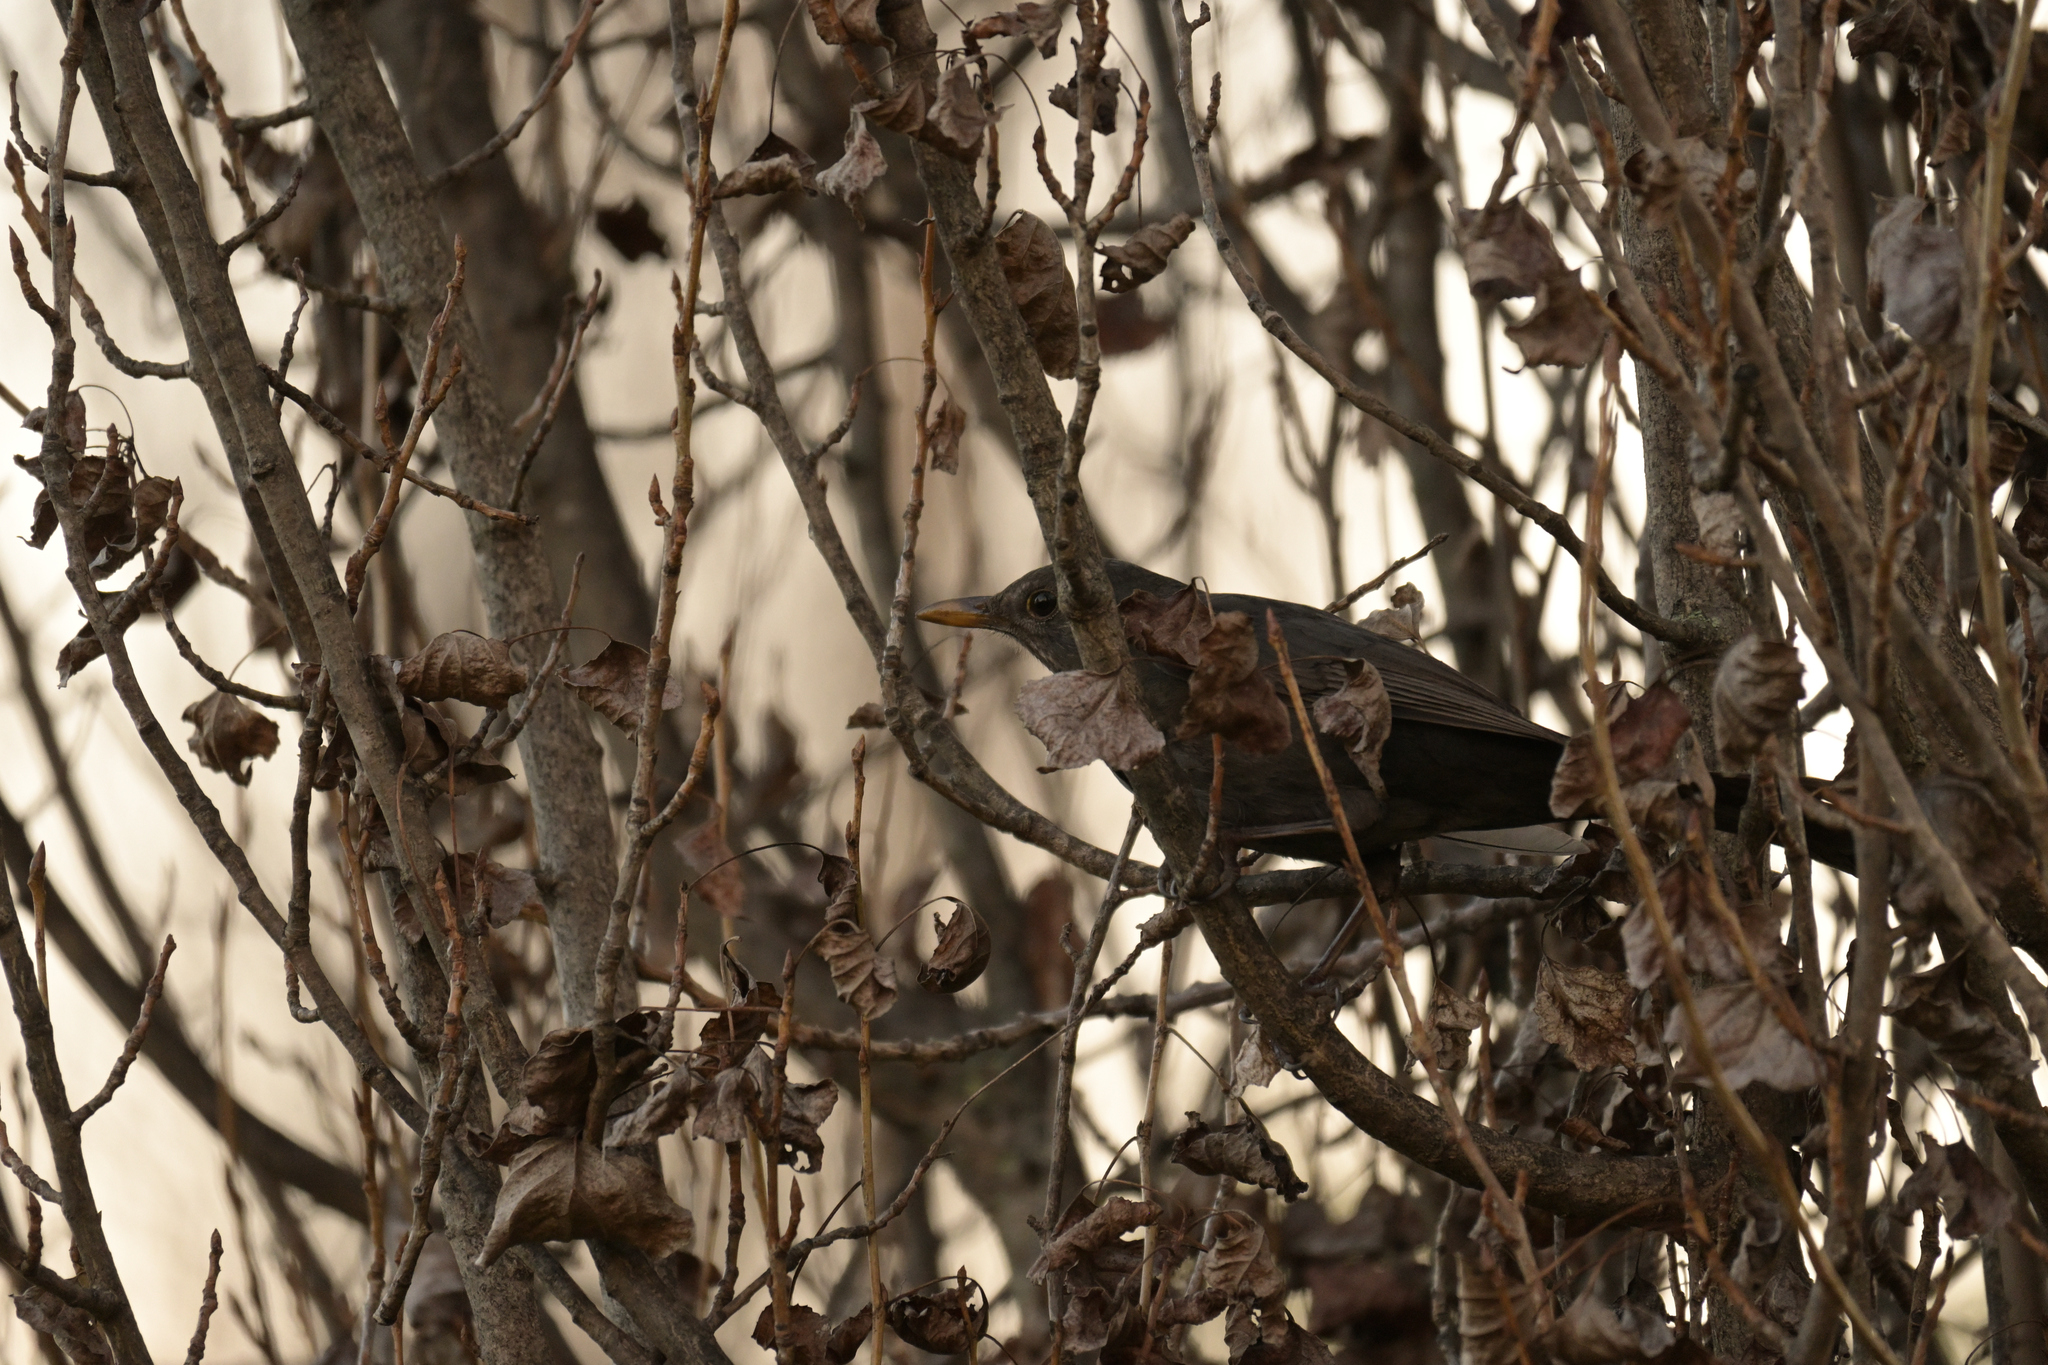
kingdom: Animalia
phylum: Chordata
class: Aves
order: Passeriformes
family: Turdidae
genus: Turdus
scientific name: Turdus merula
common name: Common blackbird
